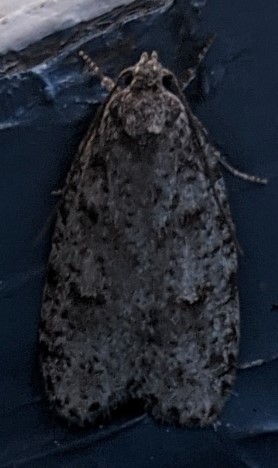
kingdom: Animalia
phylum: Arthropoda
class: Insecta
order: Lepidoptera
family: Depressariidae
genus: Bibarrambla
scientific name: Bibarrambla allenella
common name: Bog bibarrambla moth
